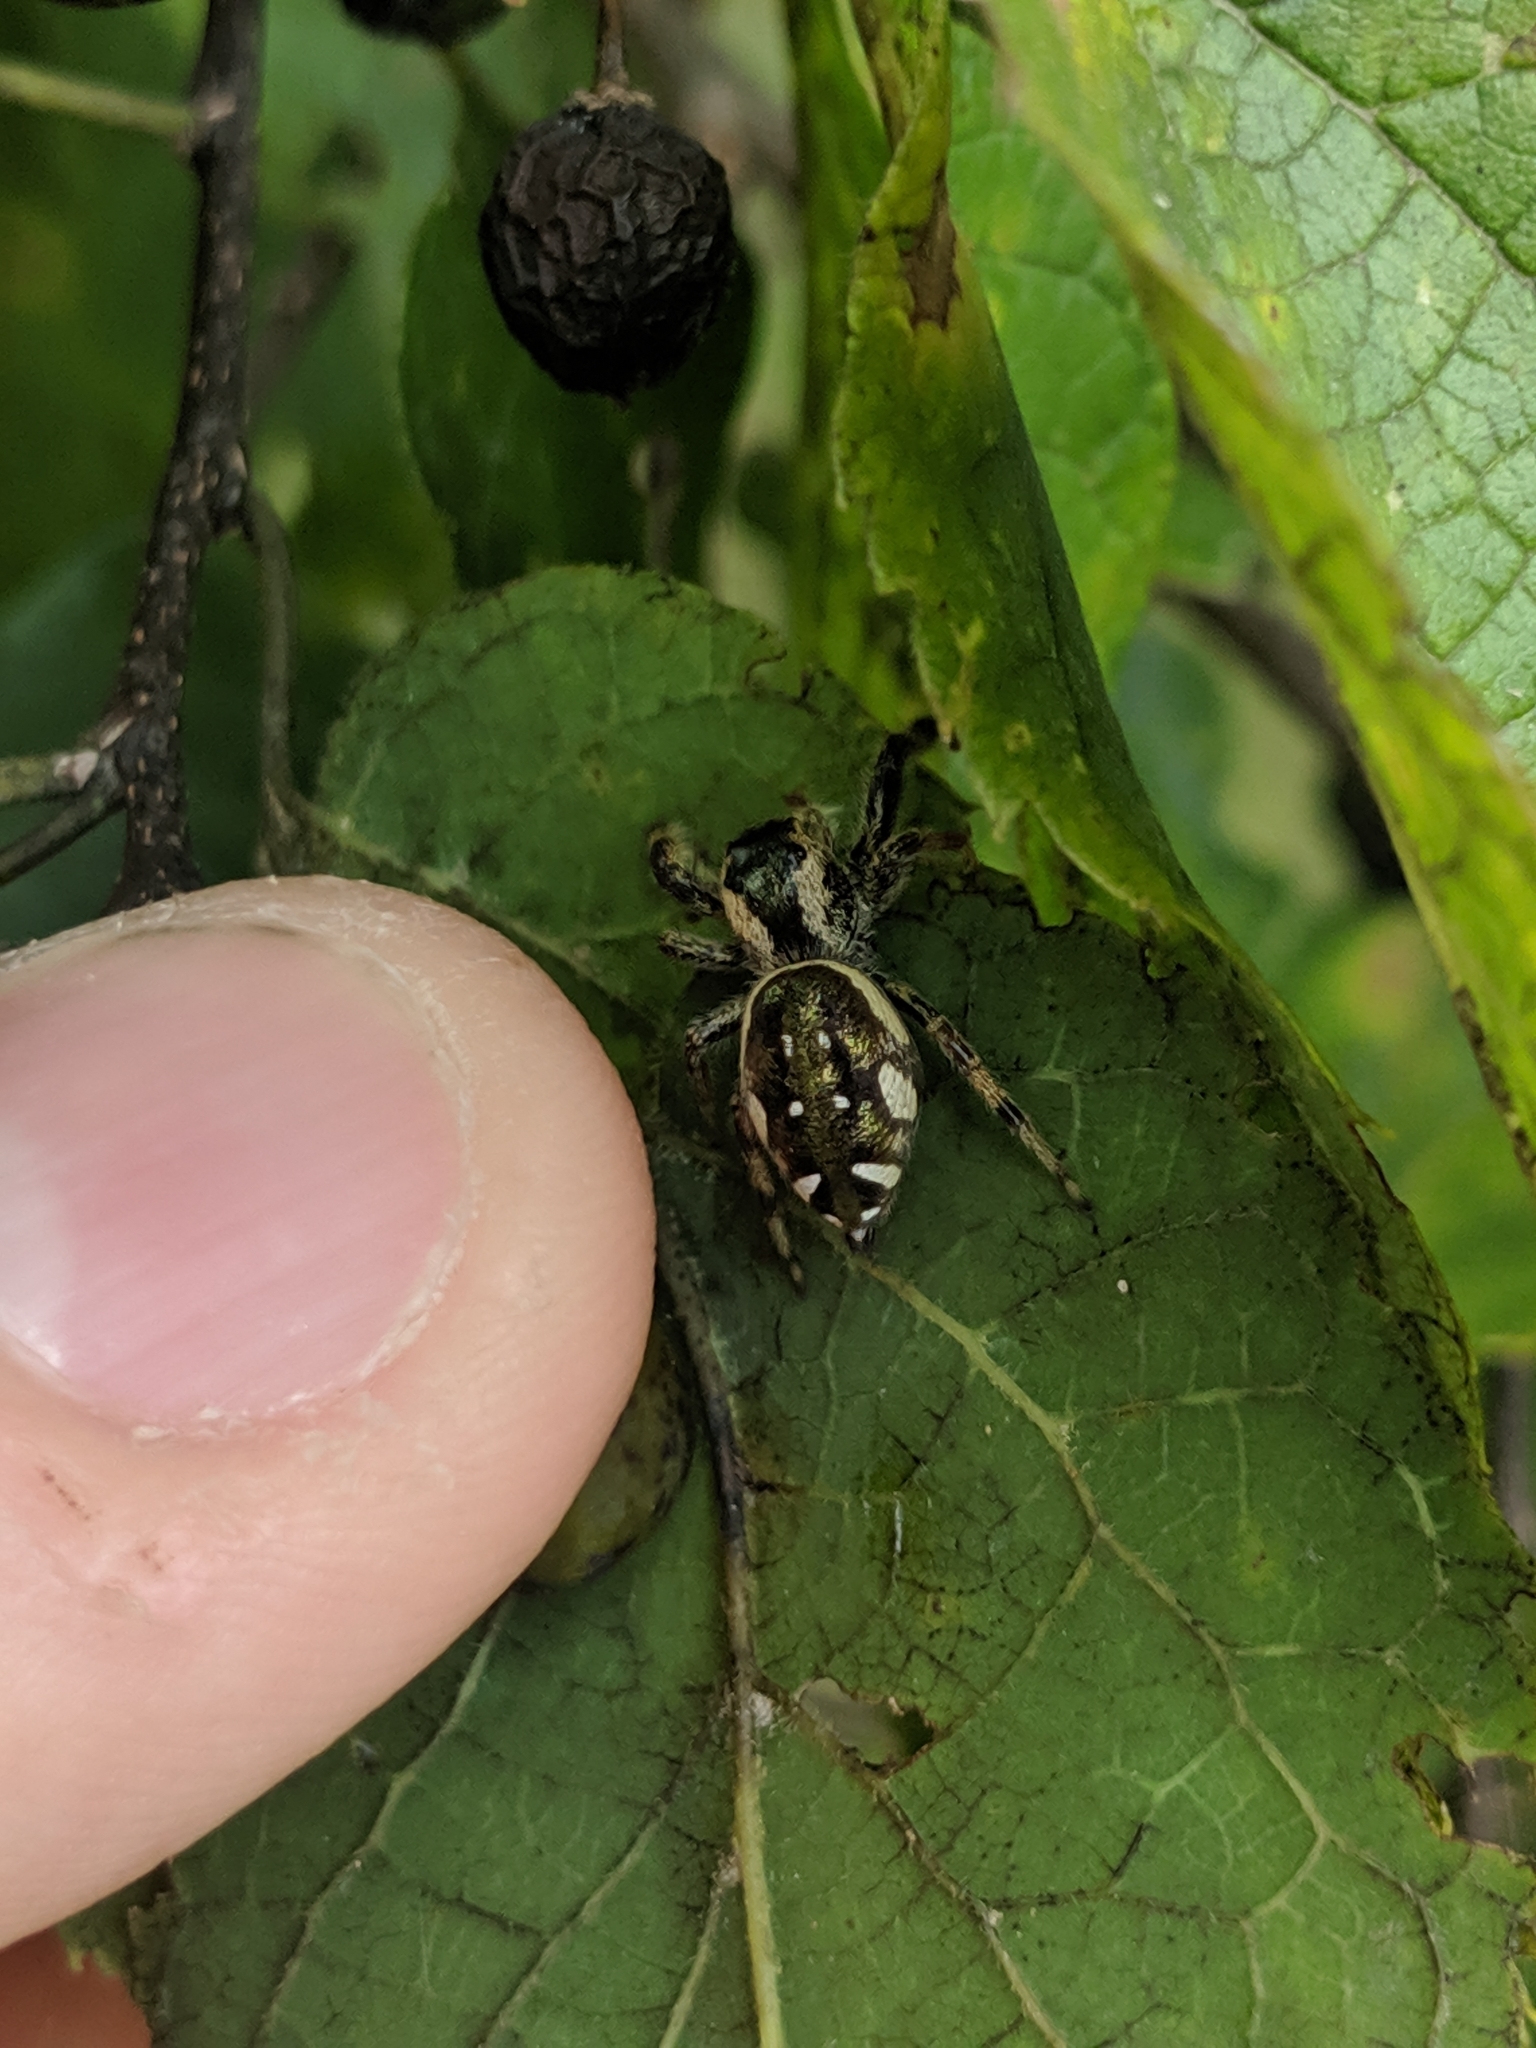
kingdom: Animalia
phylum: Arthropoda
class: Arachnida
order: Araneae
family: Salticidae
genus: Paraphidippus
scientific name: Paraphidippus aurantius
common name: Jumping spiders
